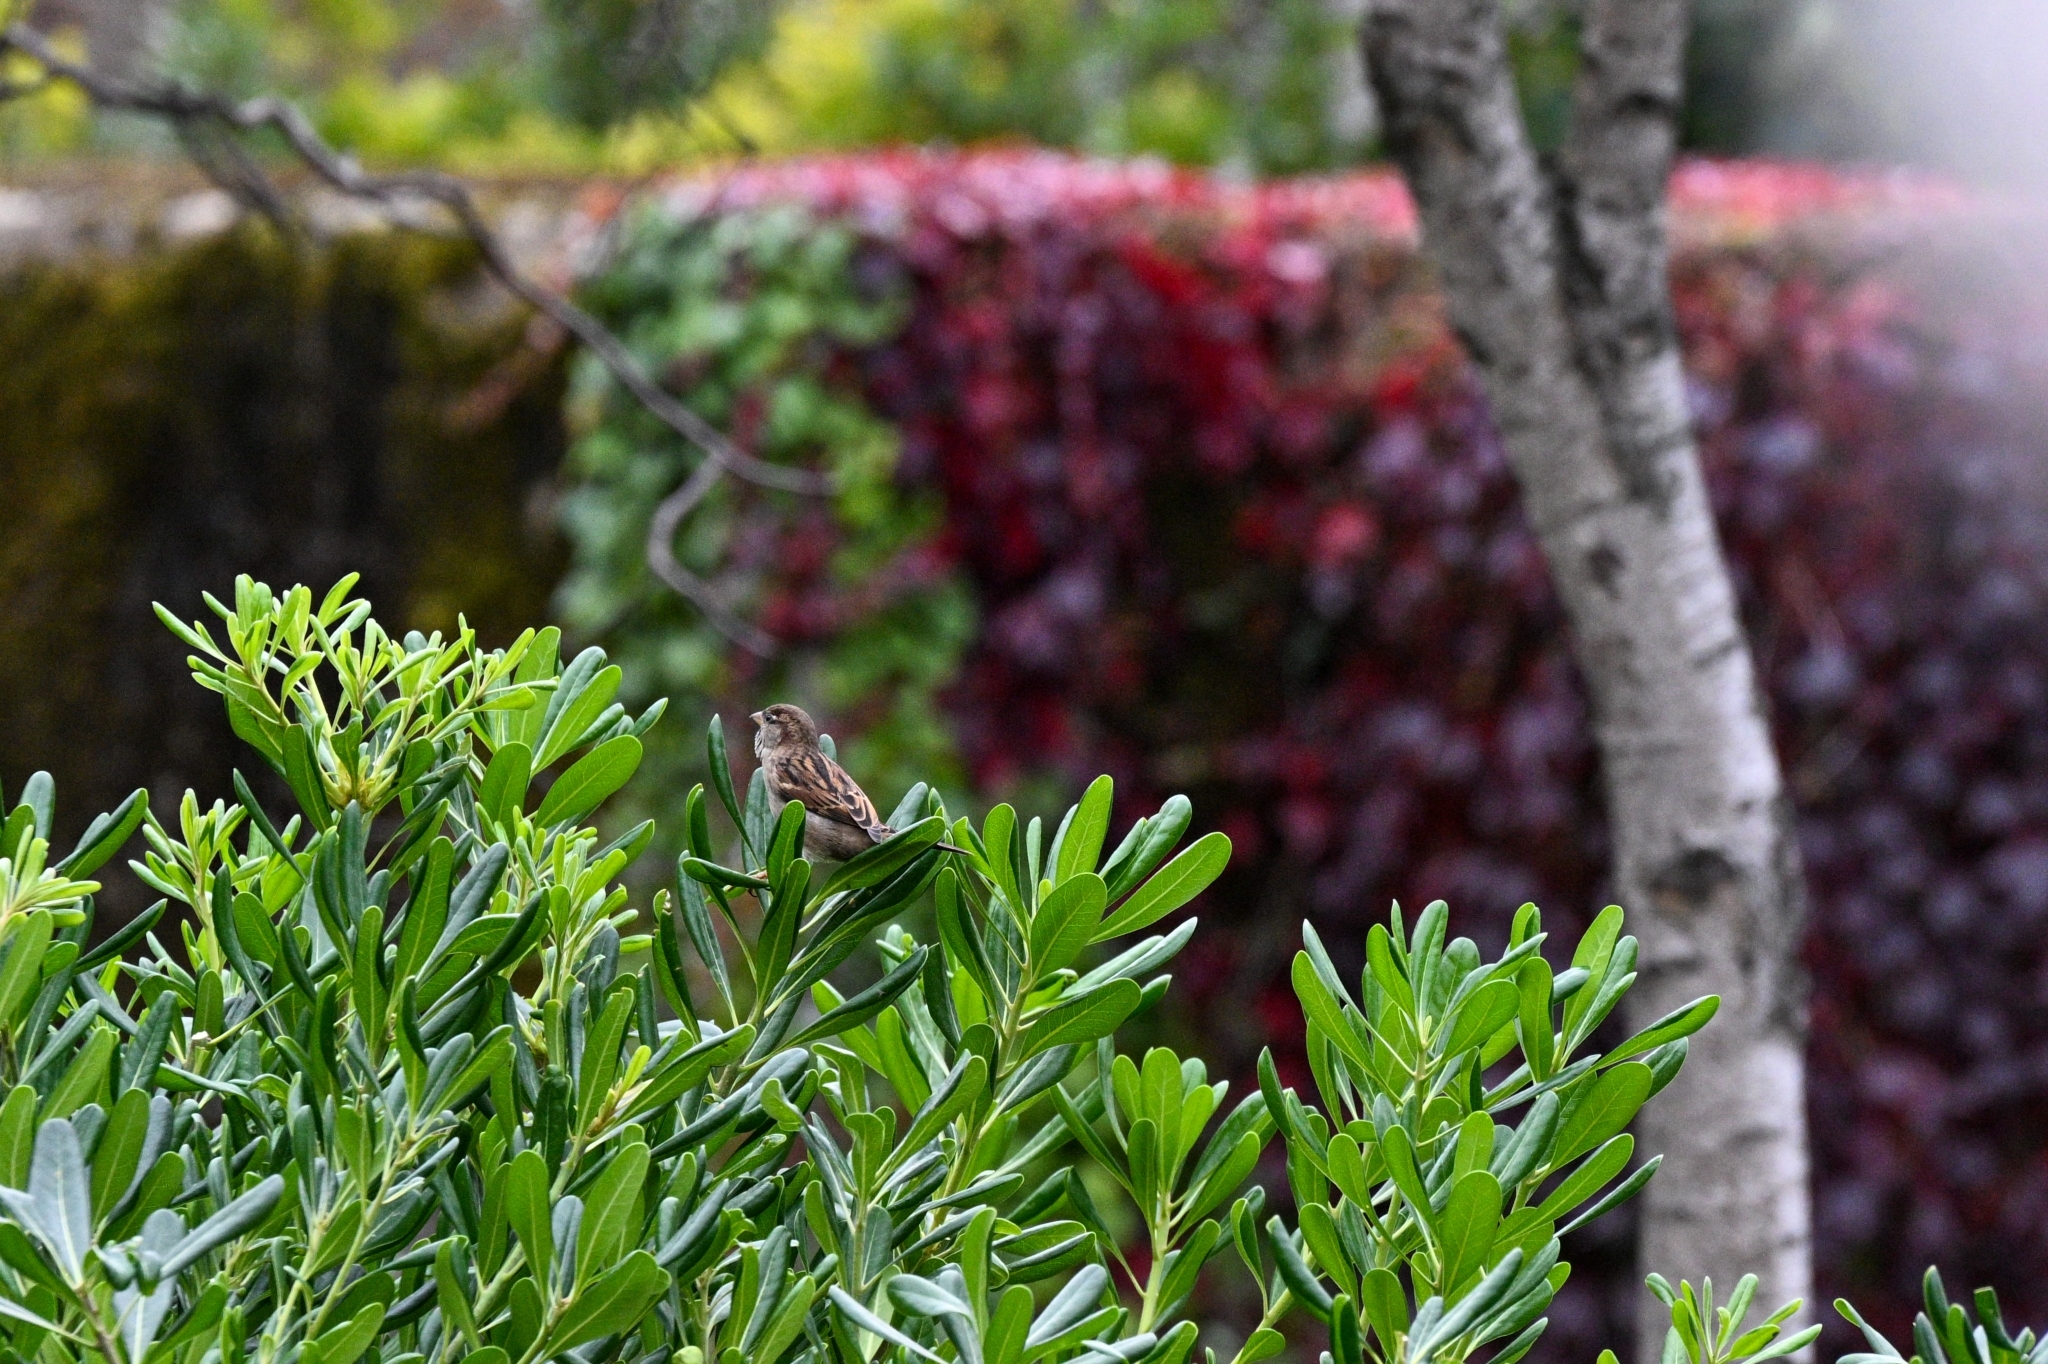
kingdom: Animalia
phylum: Chordata
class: Aves
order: Passeriformes
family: Passeridae
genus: Passer
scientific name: Passer domesticus
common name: House sparrow
